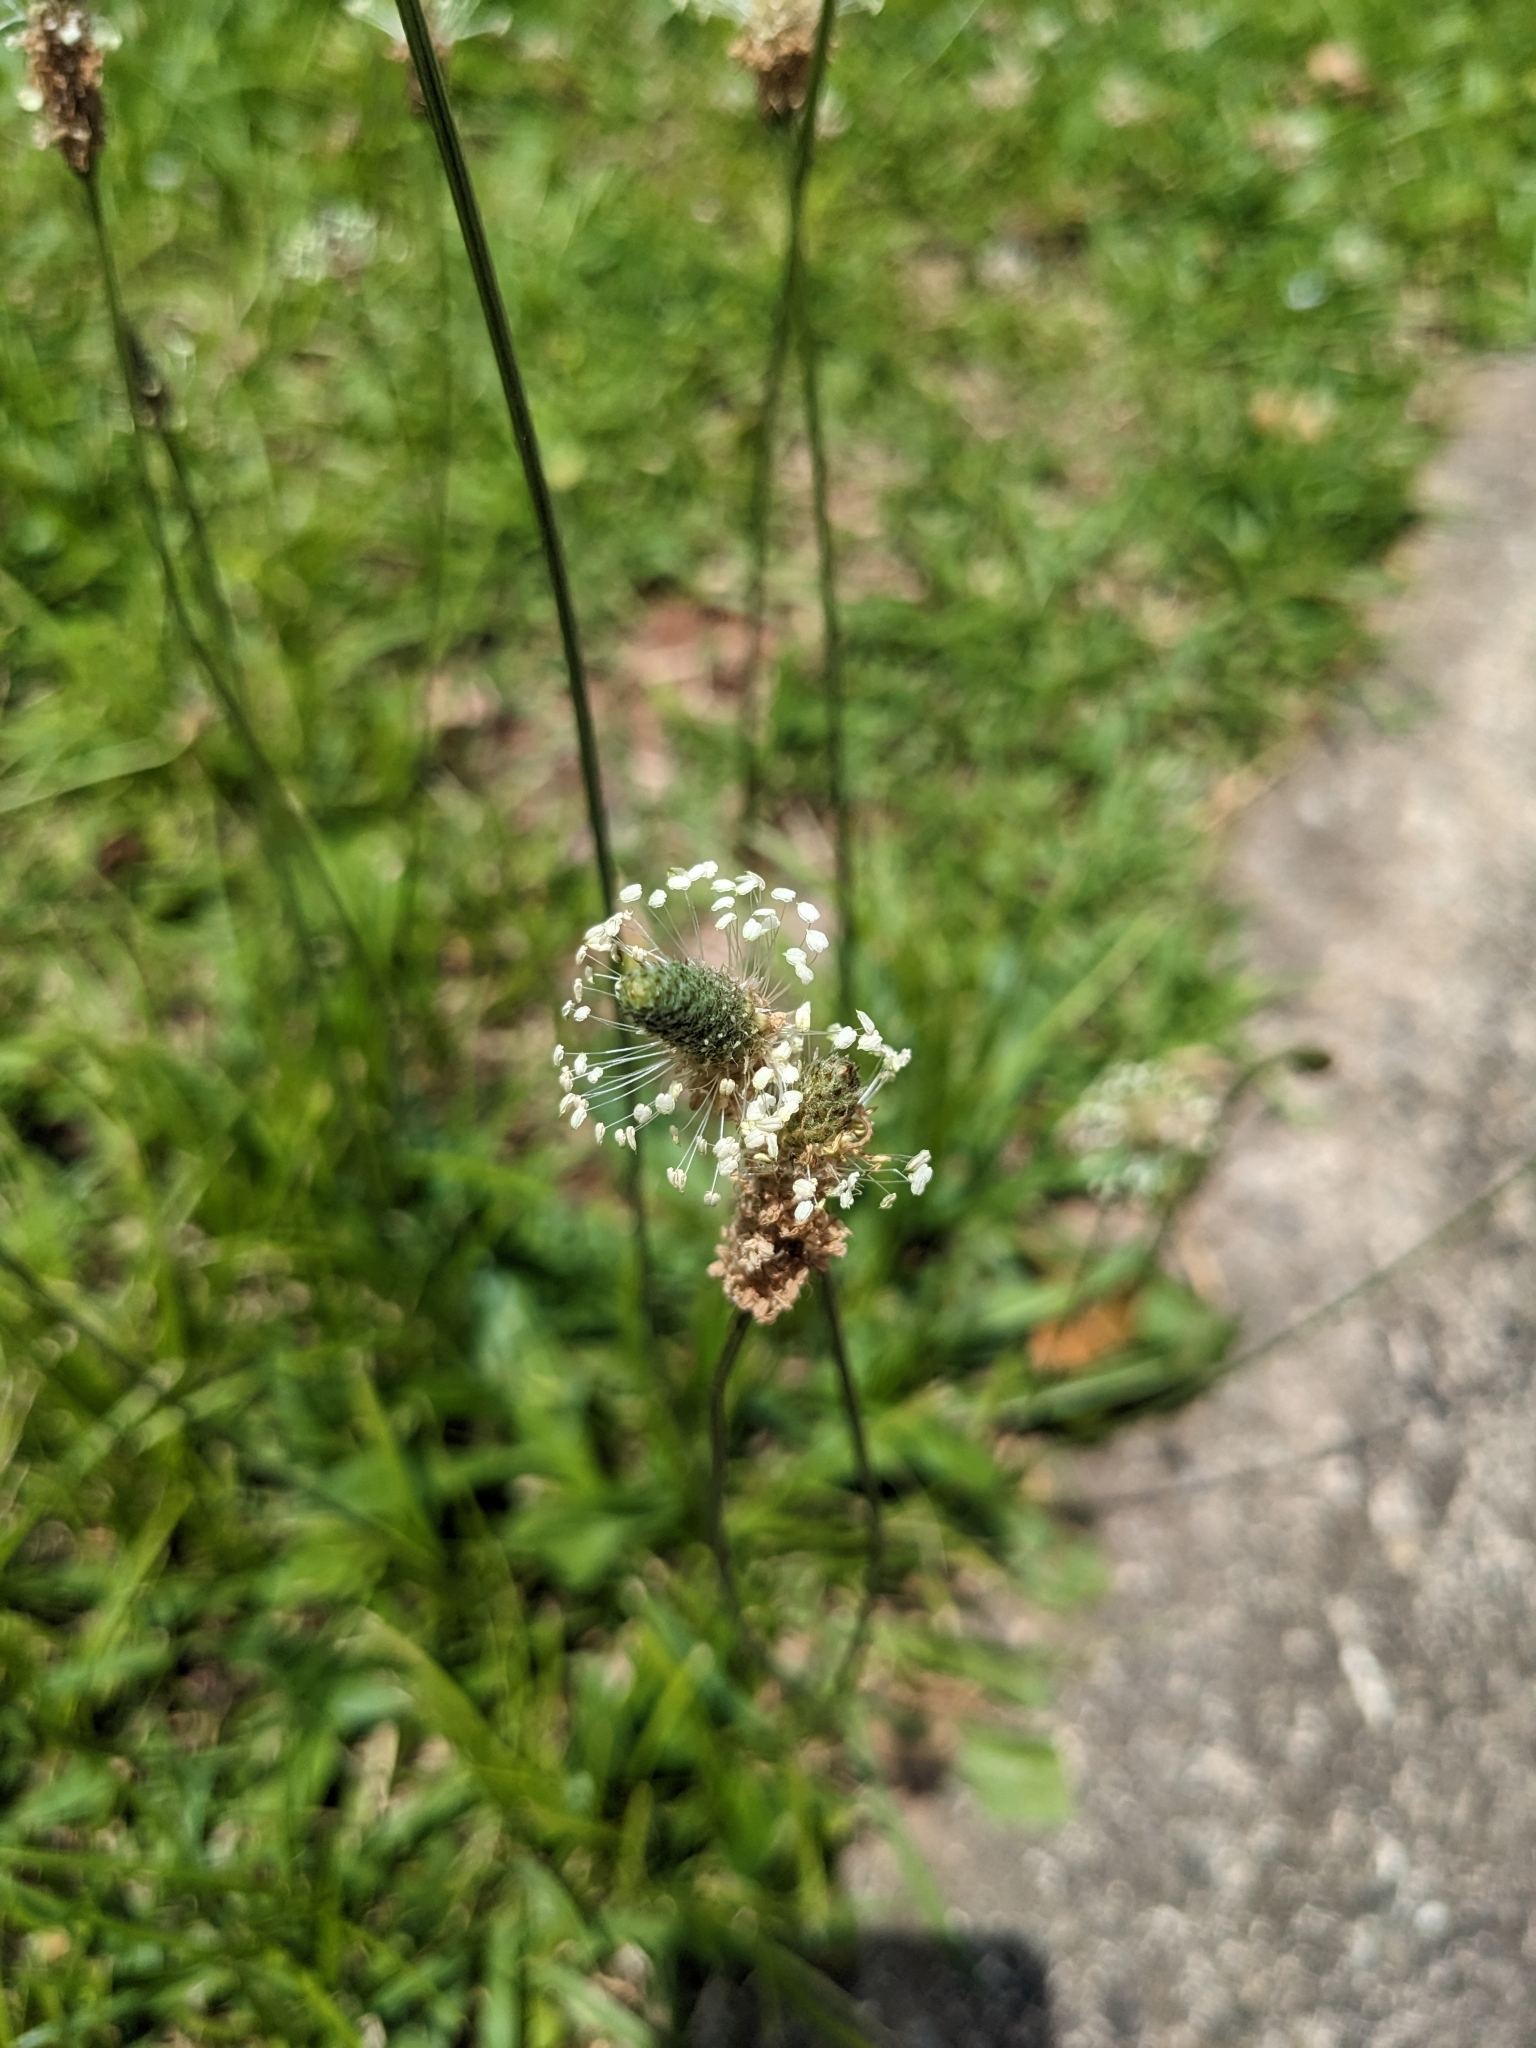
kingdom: Plantae
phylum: Tracheophyta
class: Magnoliopsida
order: Lamiales
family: Plantaginaceae
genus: Plantago
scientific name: Plantago lanceolata
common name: Ribwort plantain
